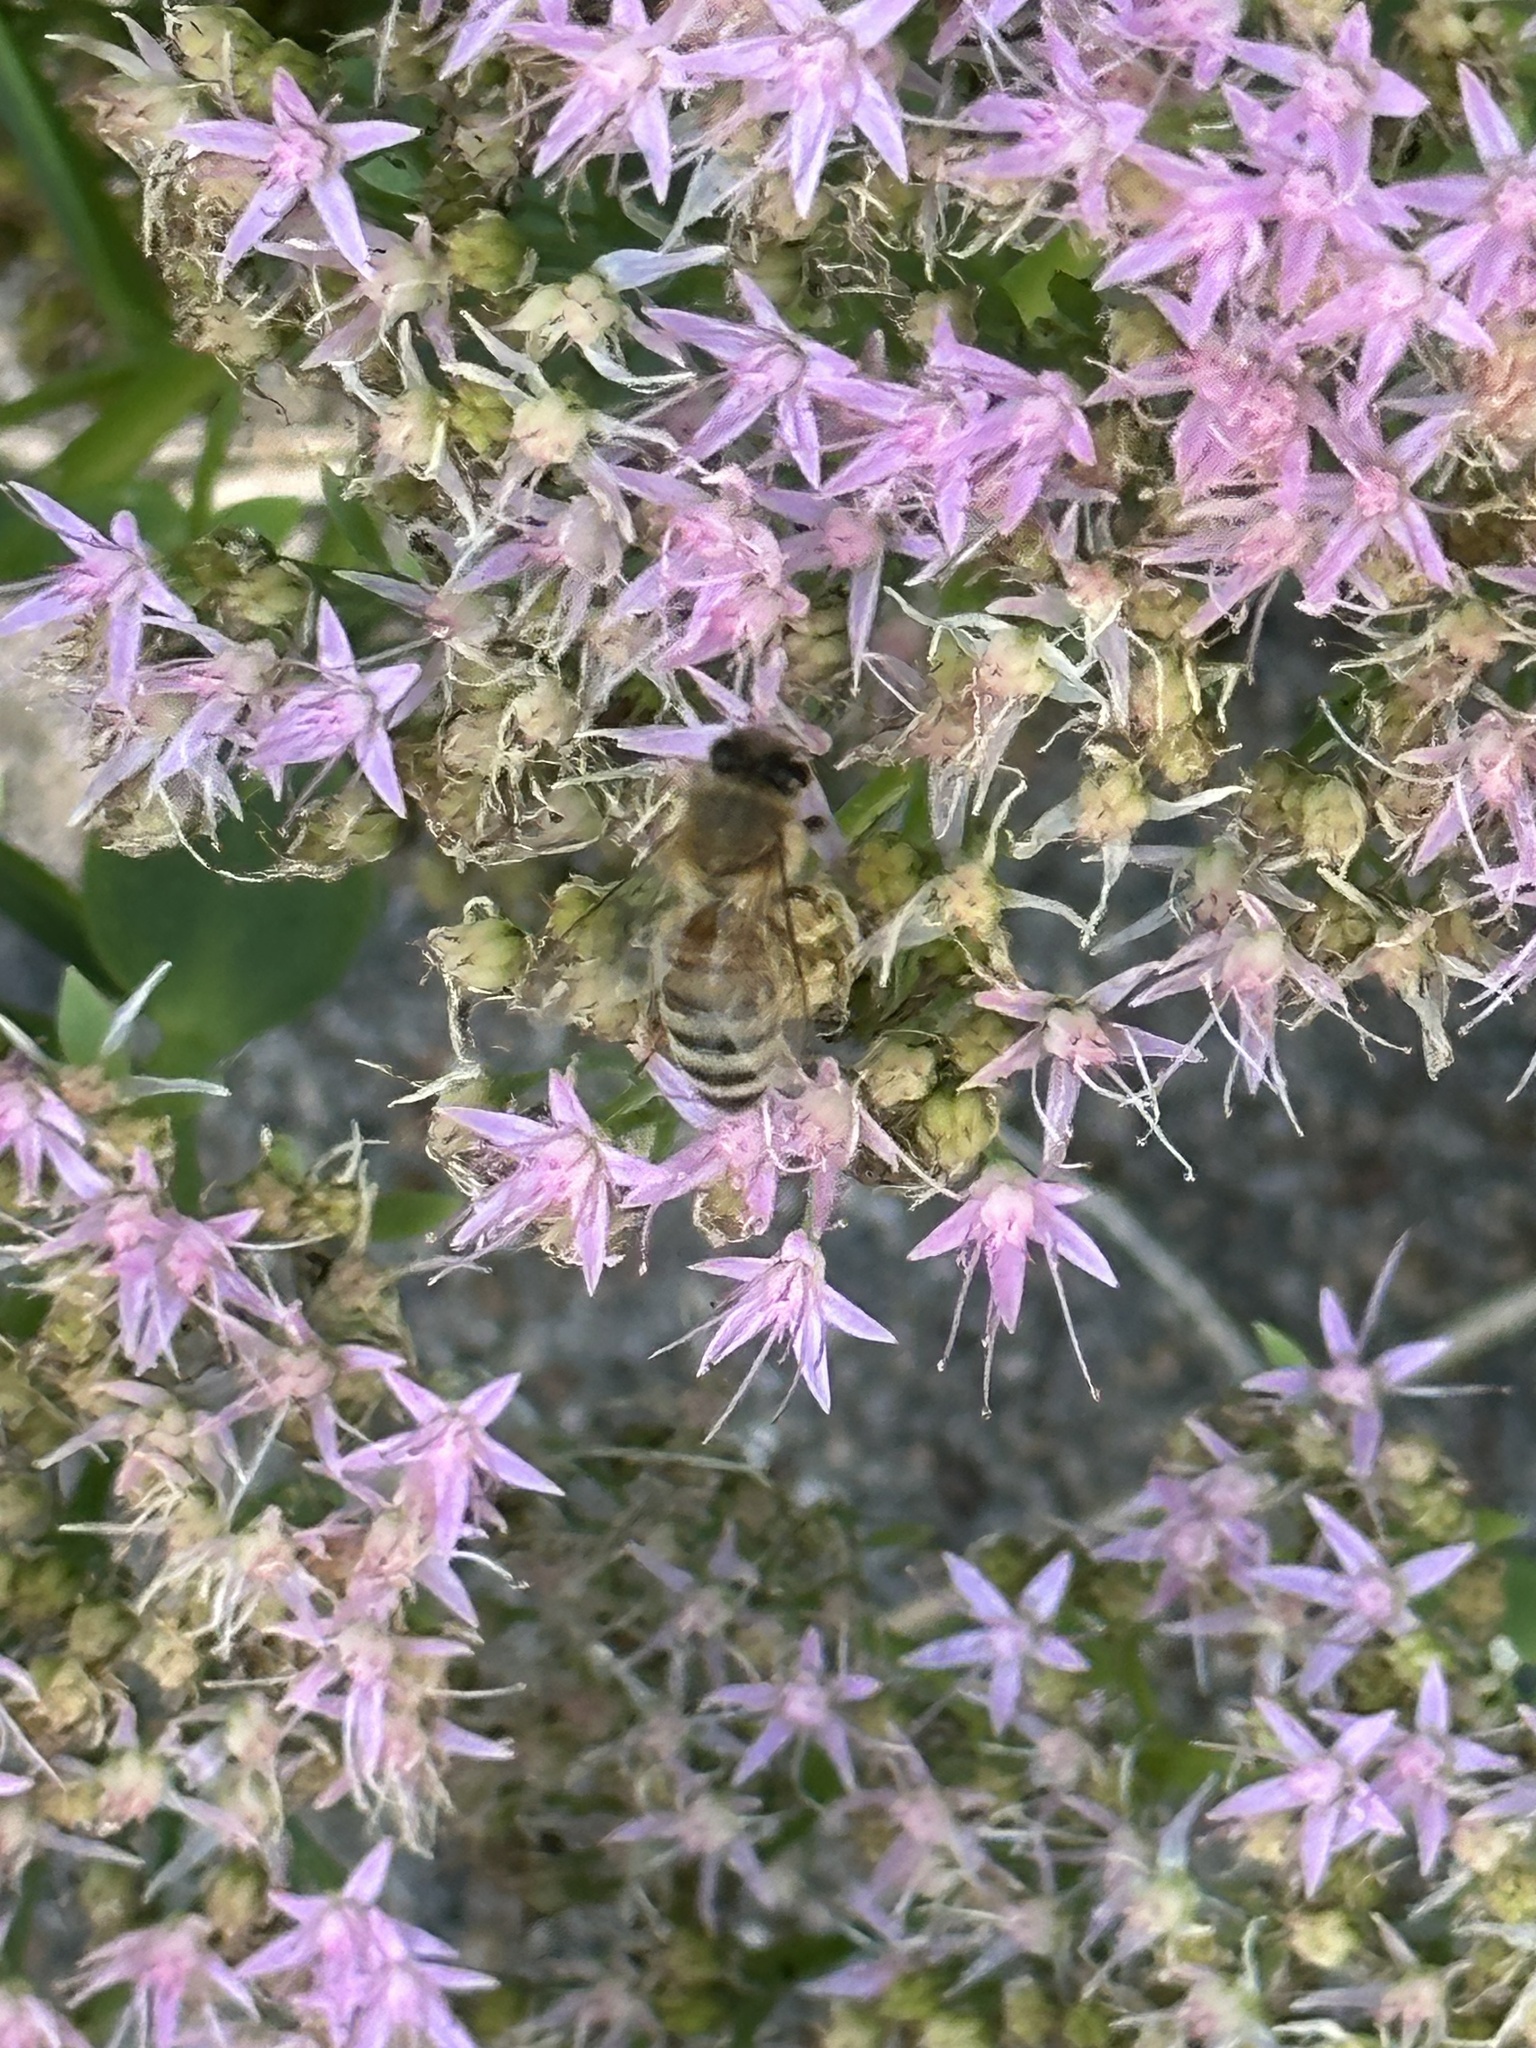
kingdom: Animalia
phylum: Arthropoda
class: Insecta
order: Hymenoptera
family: Apidae
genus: Apis
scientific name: Apis mellifera
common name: Honey bee
